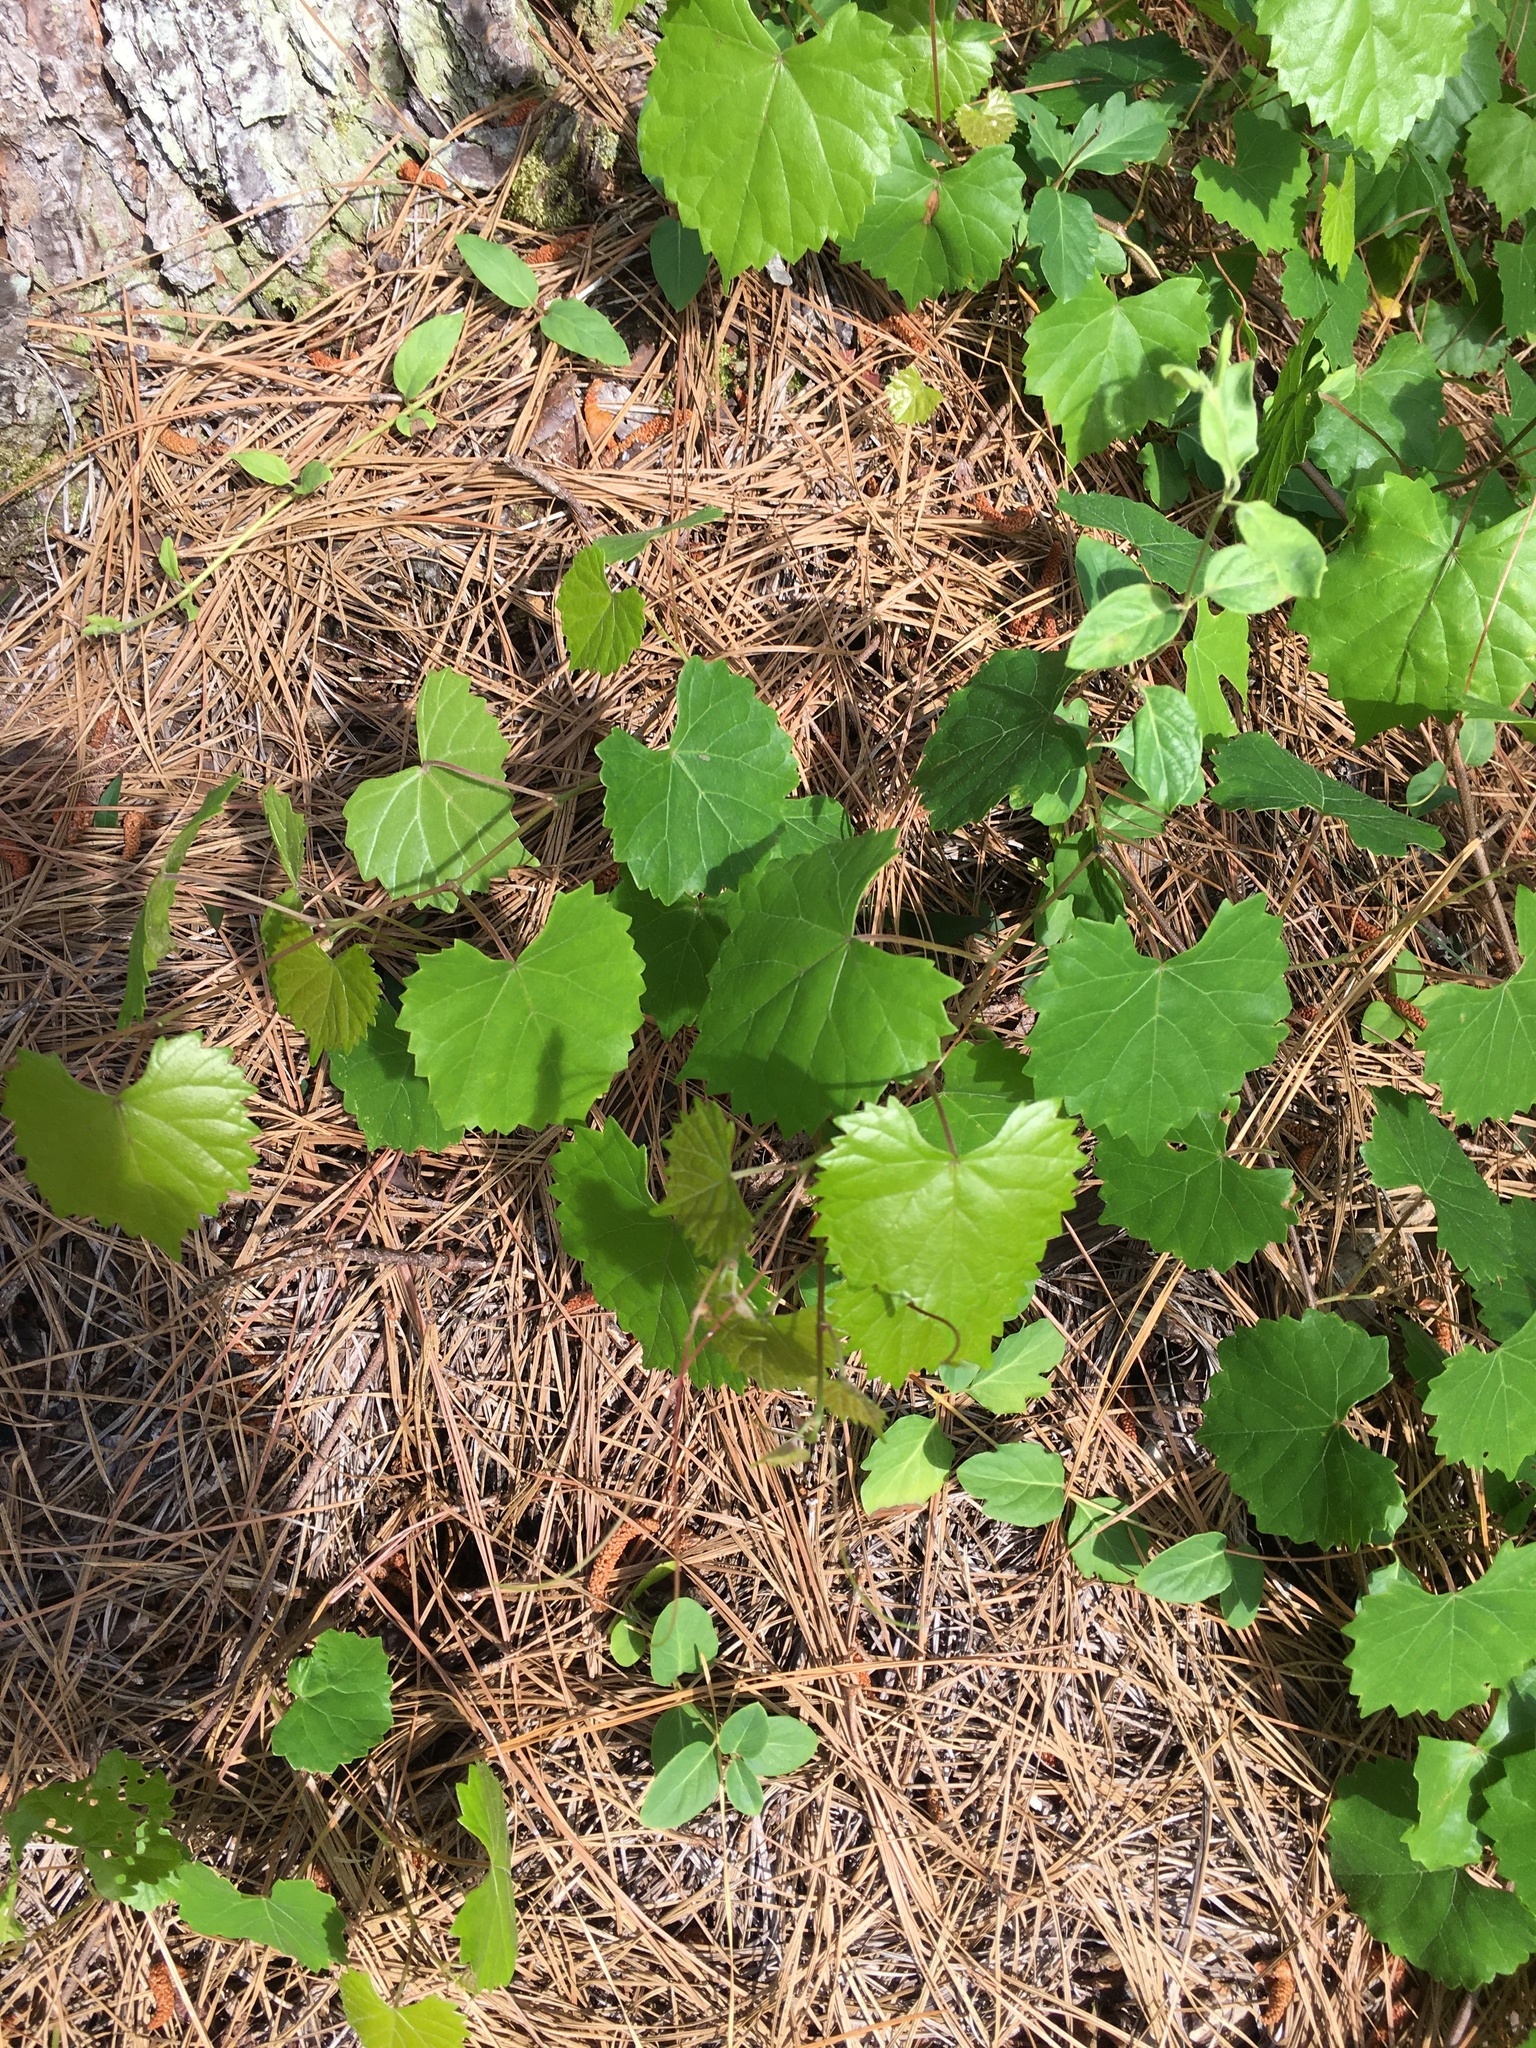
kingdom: Plantae
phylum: Tracheophyta
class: Magnoliopsida
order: Vitales
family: Vitaceae
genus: Vitis
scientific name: Vitis rotundifolia
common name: Muscadine grape
